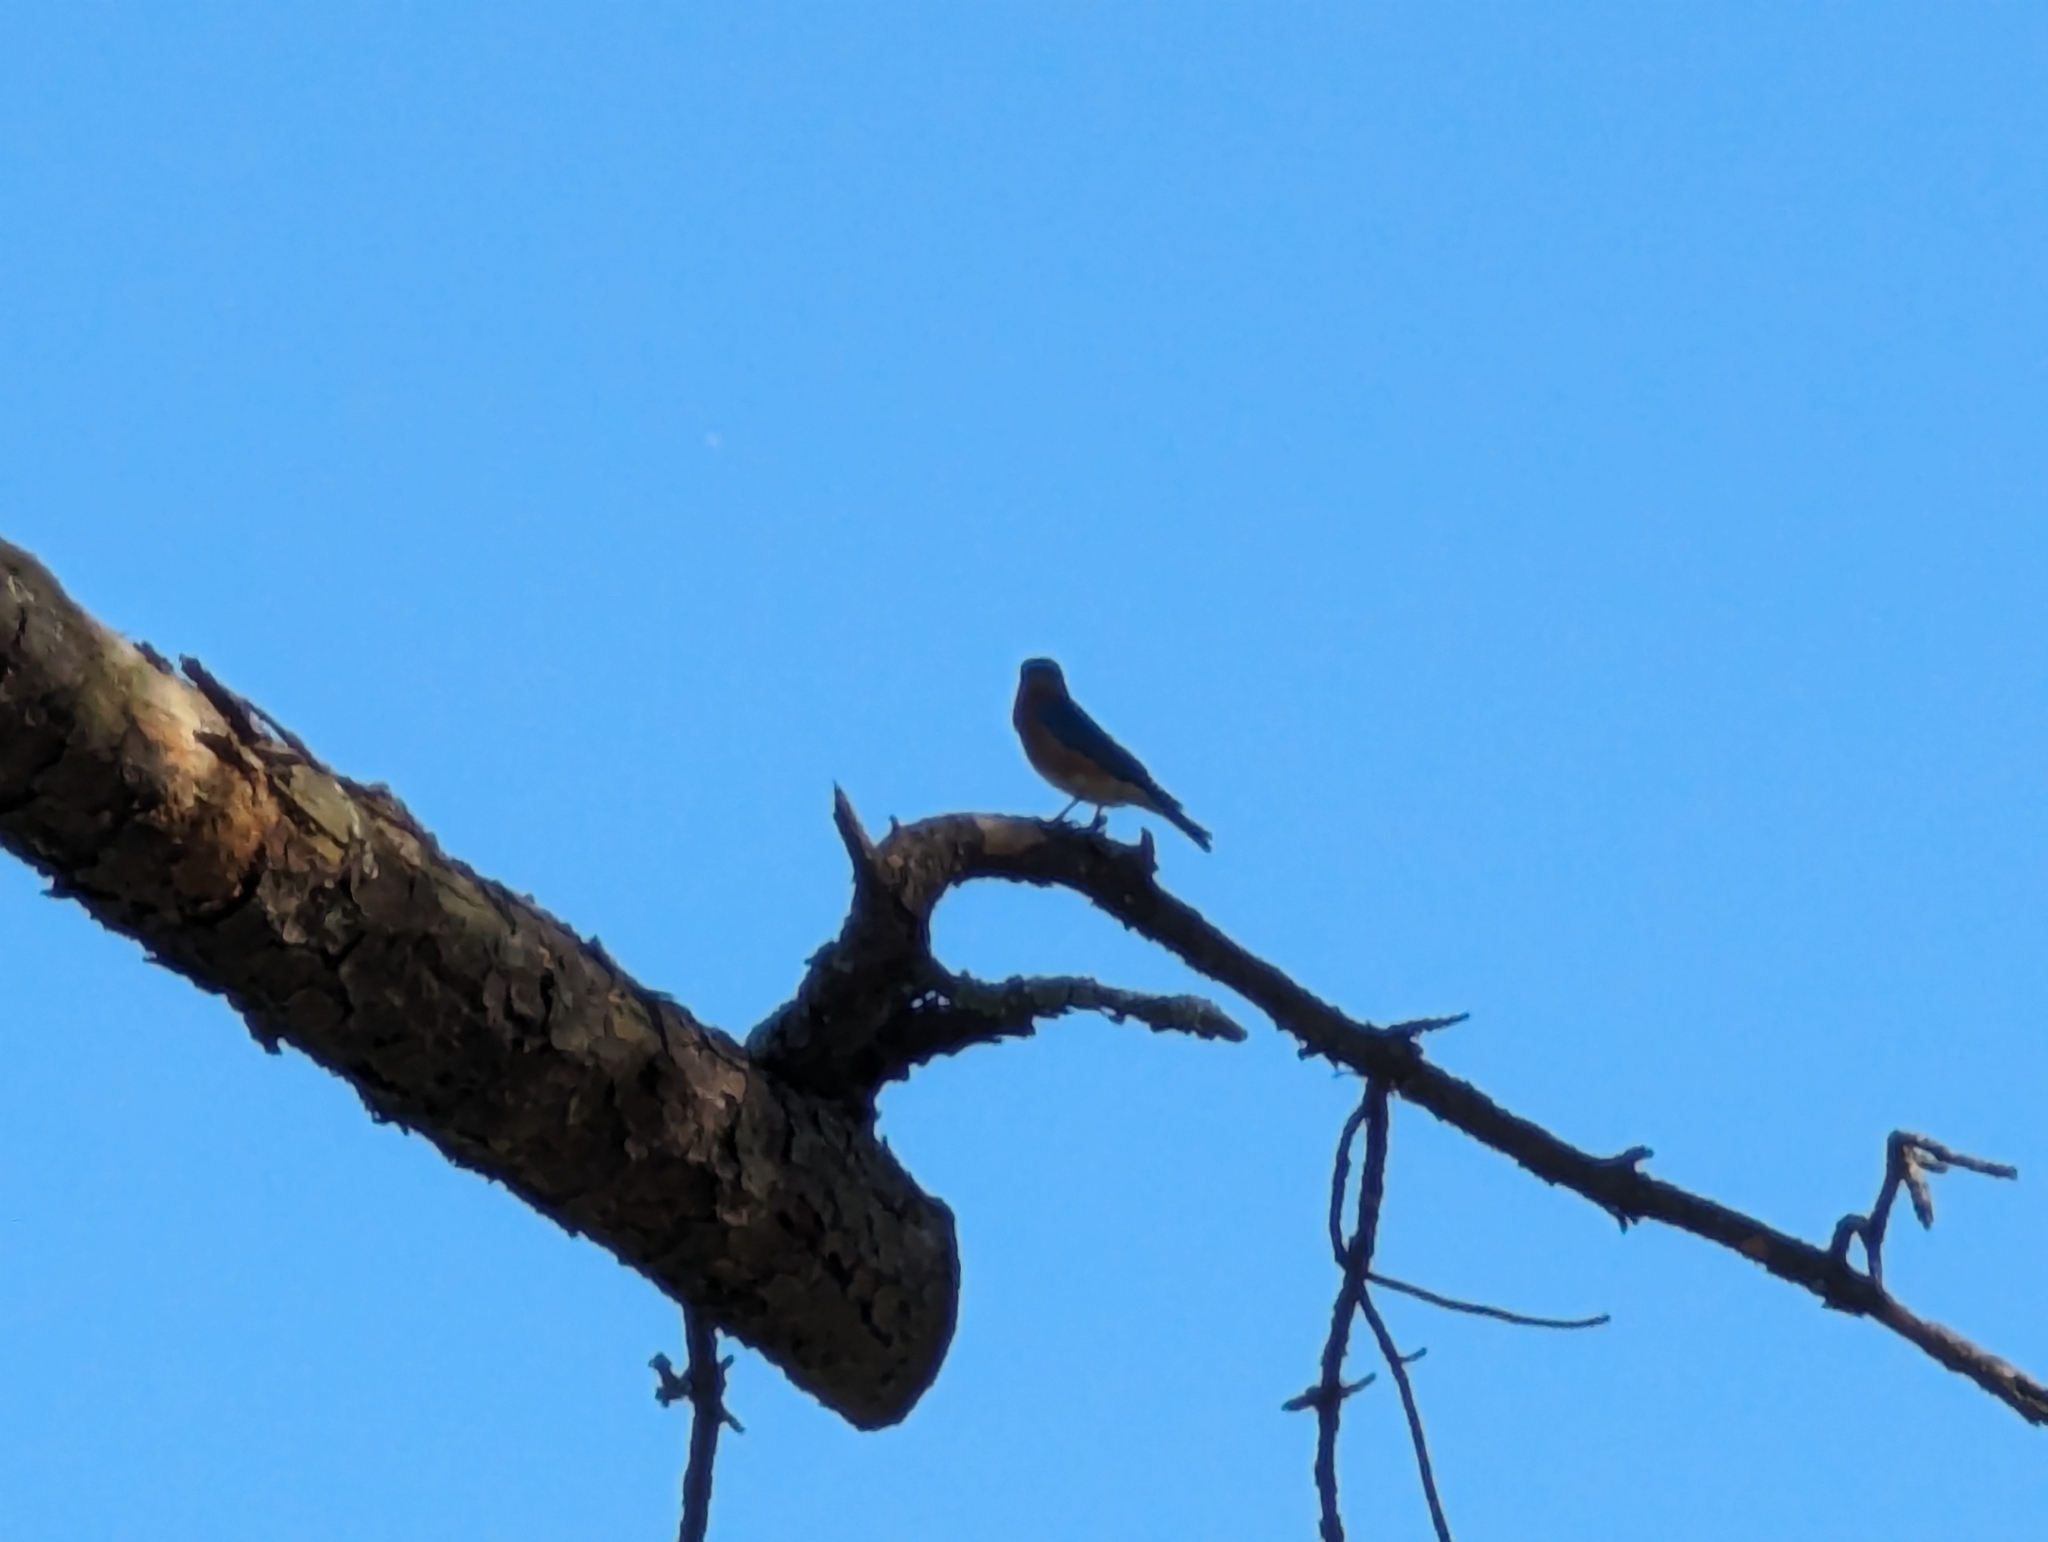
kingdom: Animalia
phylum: Chordata
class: Aves
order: Passeriformes
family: Turdidae
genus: Sialia
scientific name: Sialia sialis
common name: Eastern bluebird
